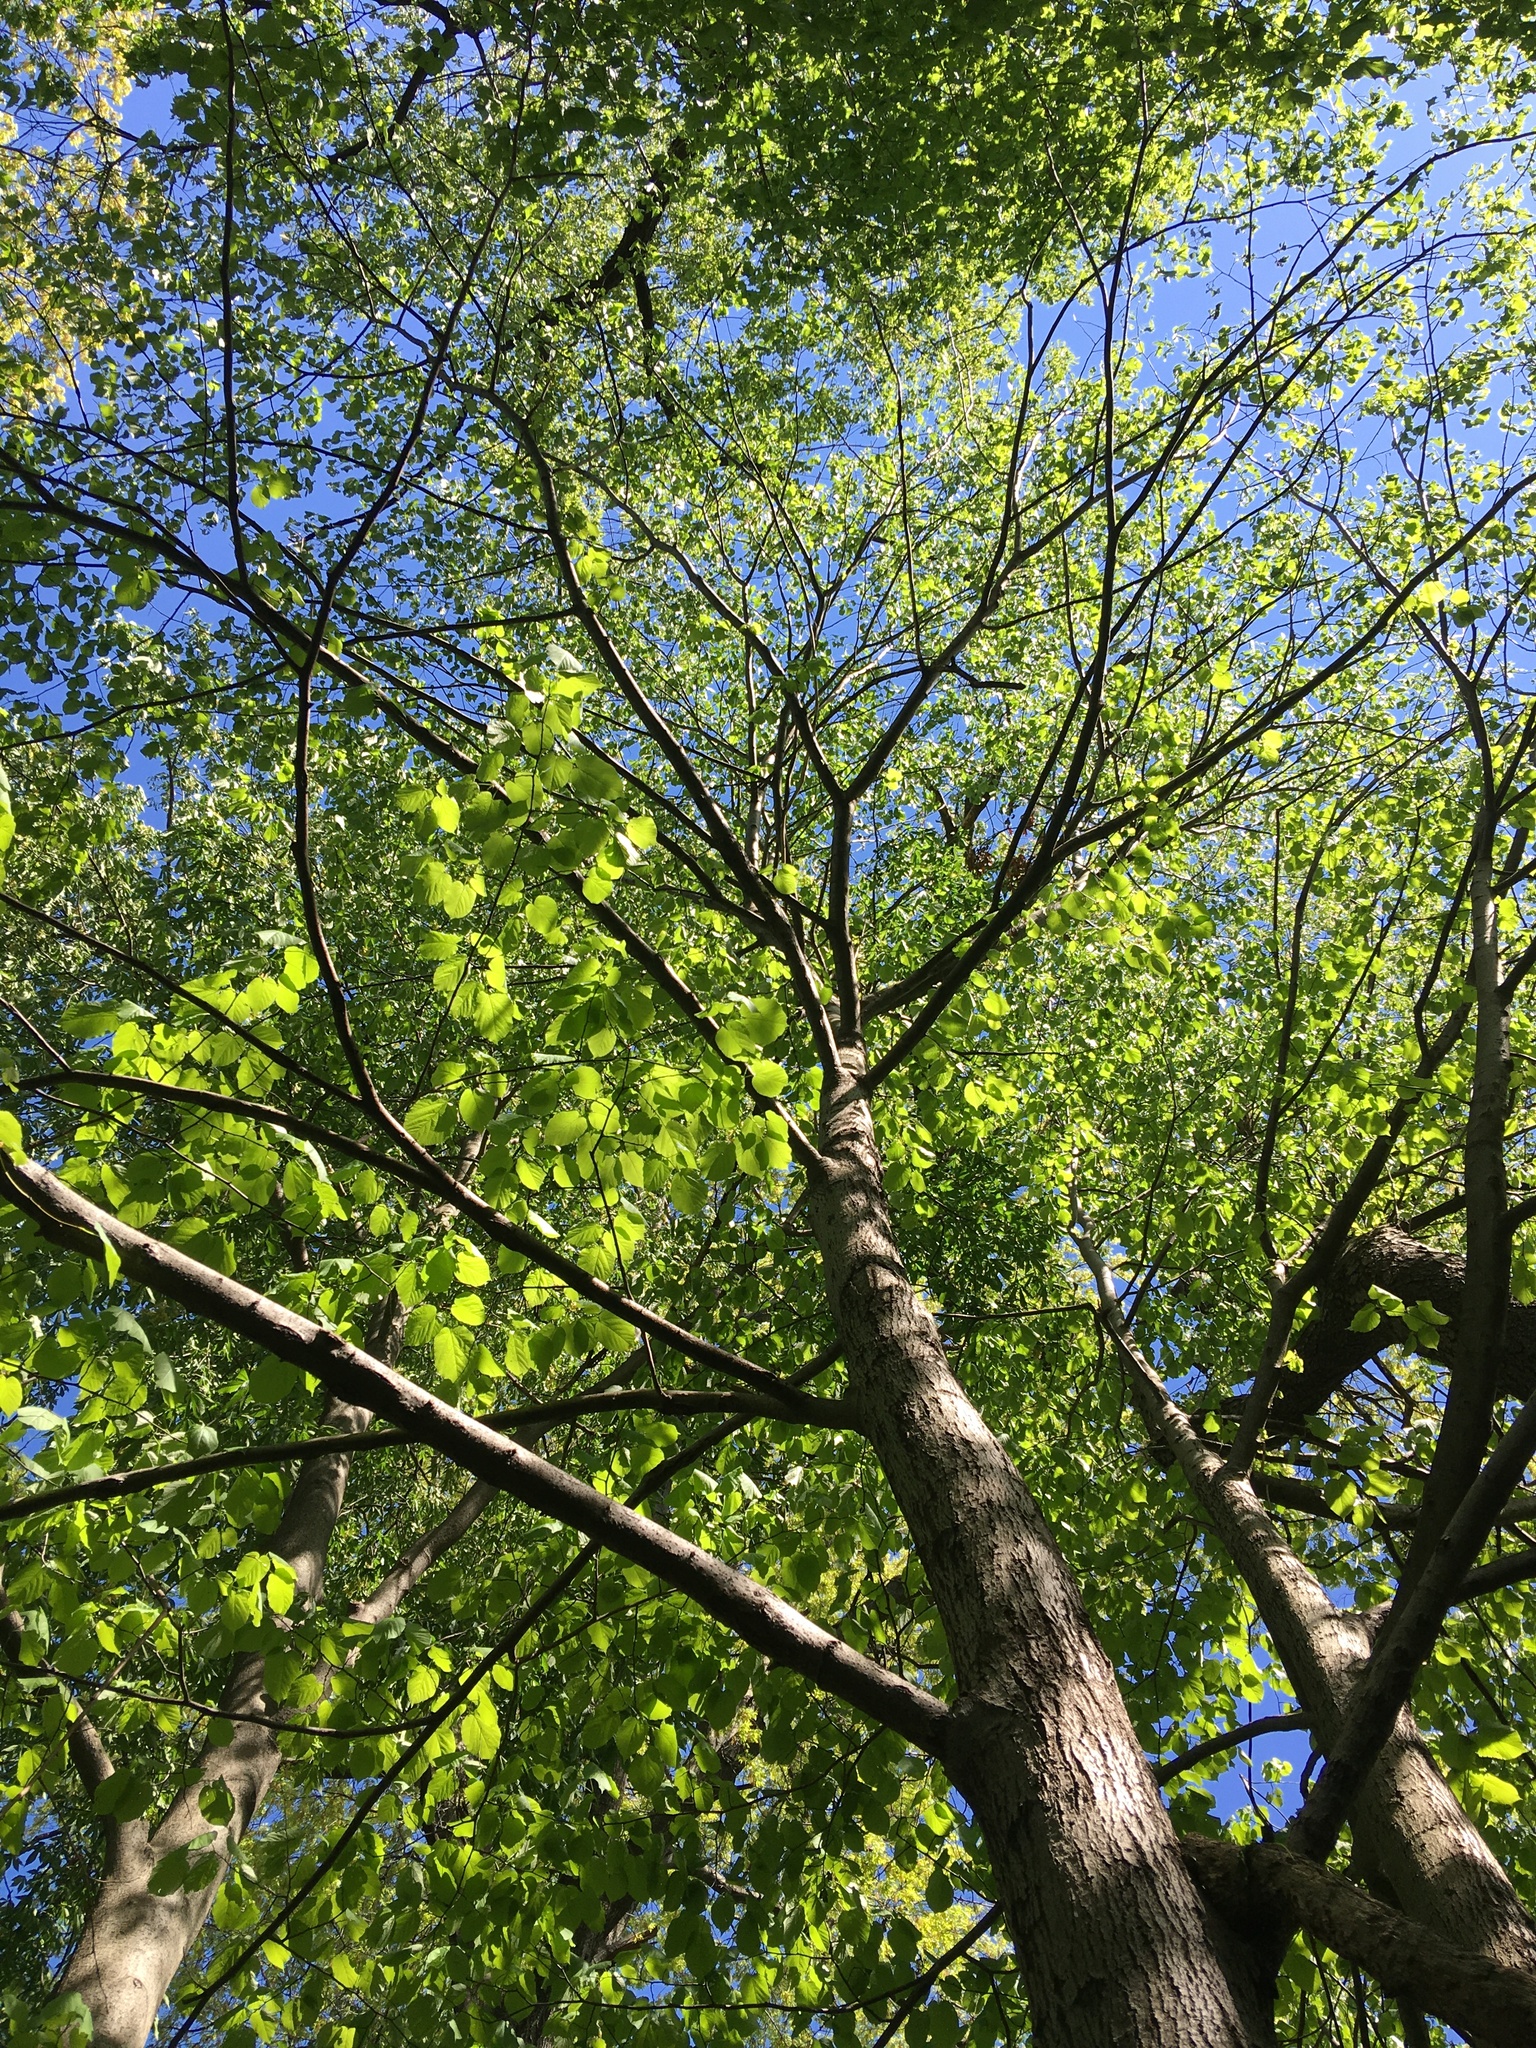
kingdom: Plantae
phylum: Tracheophyta
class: Magnoliopsida
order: Malvales
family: Malvaceae
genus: Tilia
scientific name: Tilia americana
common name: Basswood
